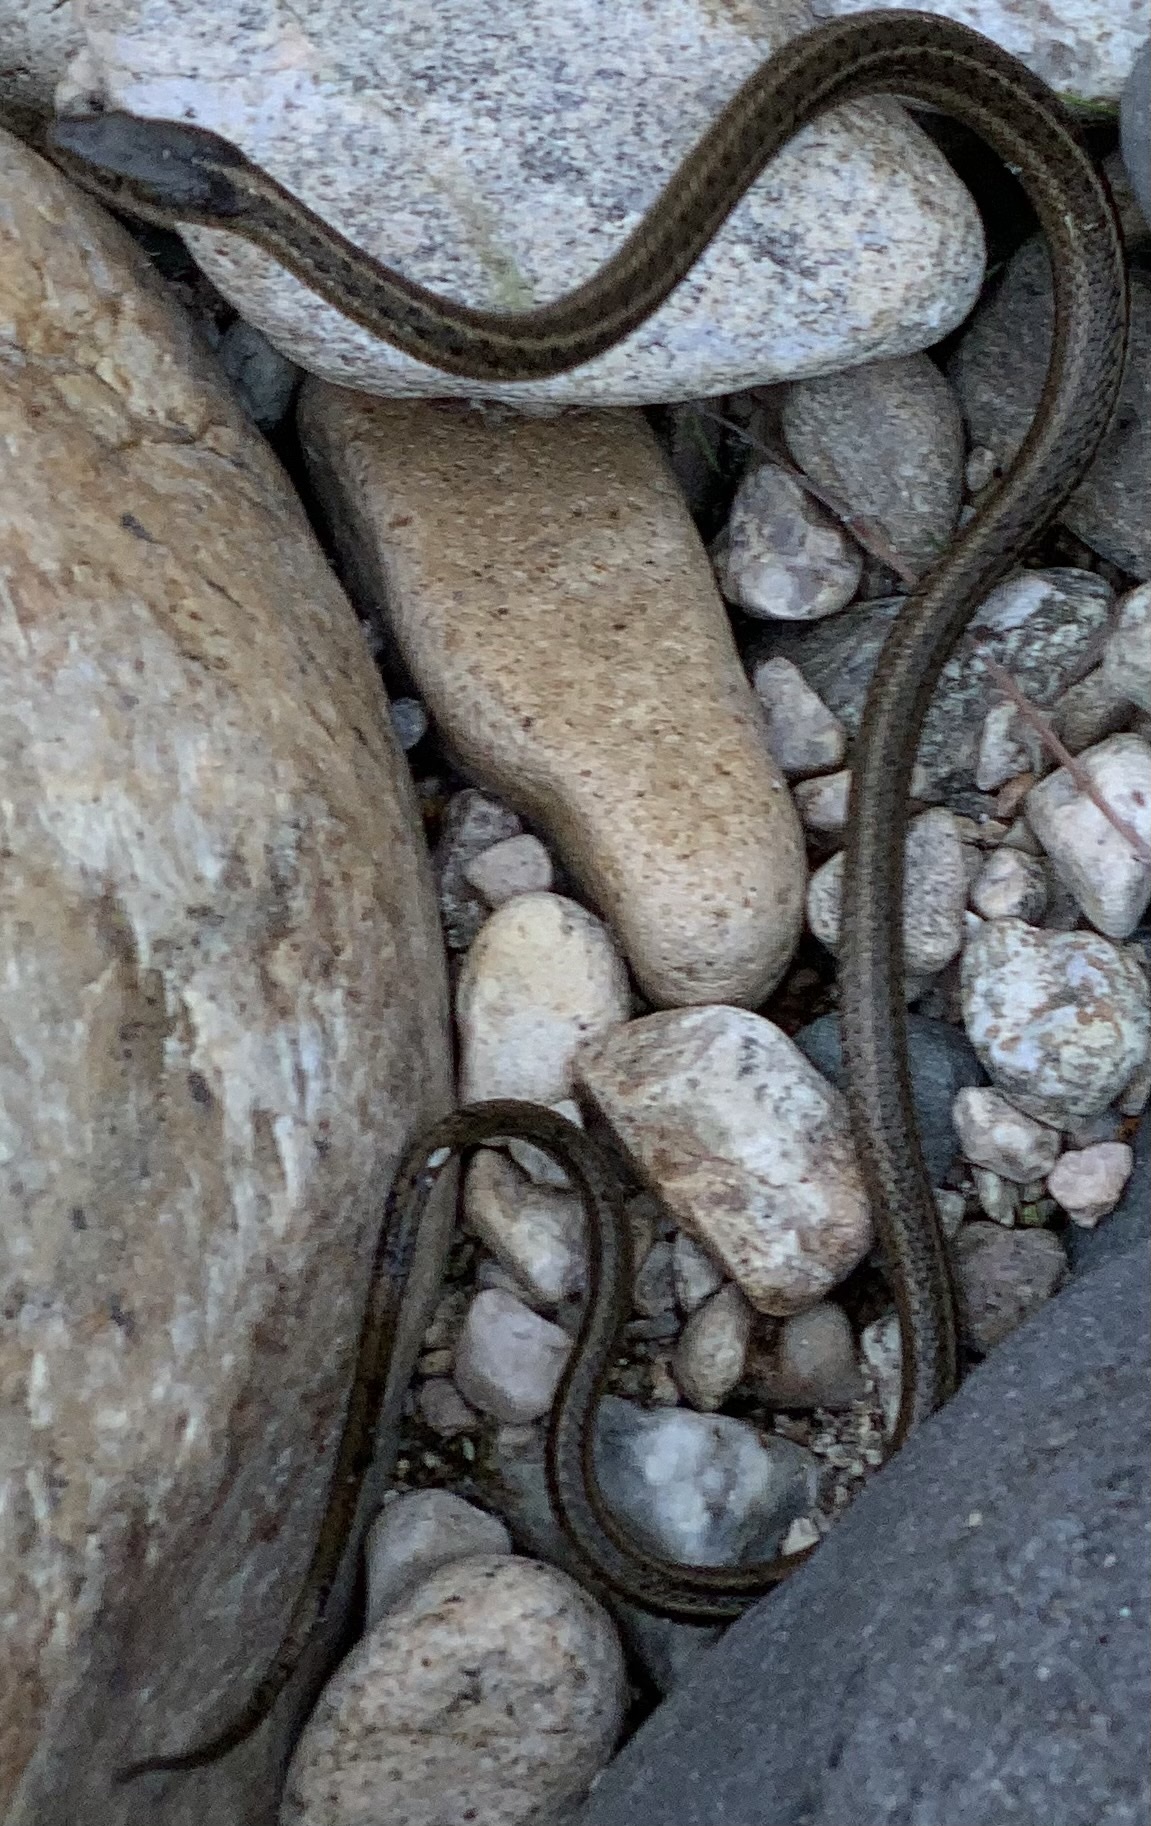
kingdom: Animalia
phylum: Chordata
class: Squamata
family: Colubridae
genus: Thamnophis
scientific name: Thamnophis elegans
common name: Western terrestrial garter snake
